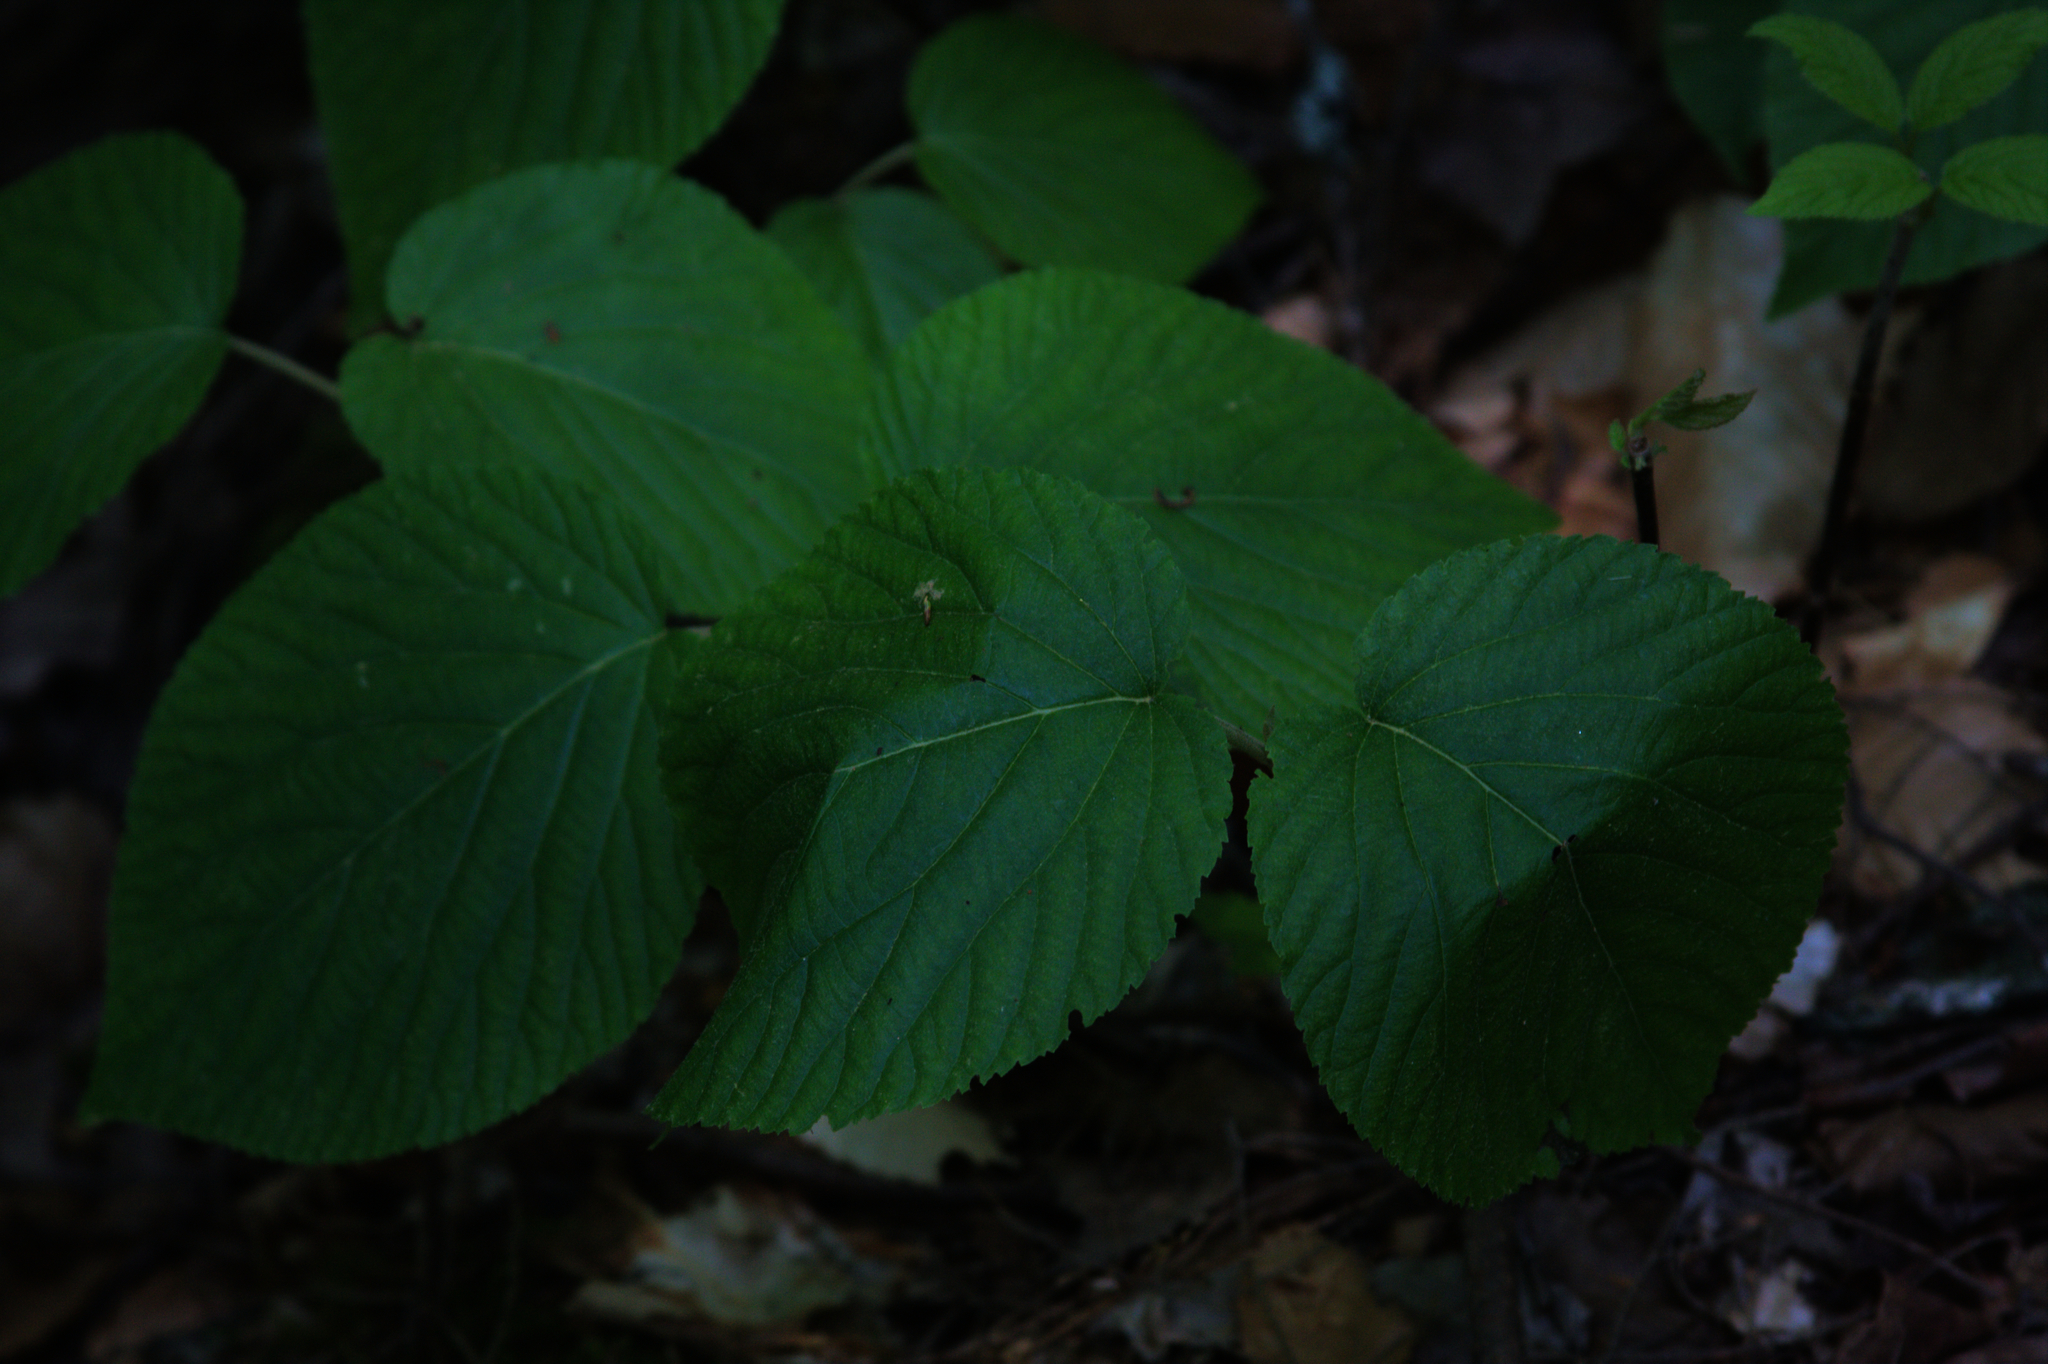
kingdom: Plantae
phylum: Tracheophyta
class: Magnoliopsida
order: Dipsacales
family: Viburnaceae
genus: Viburnum
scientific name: Viburnum lantanoides
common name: Hobblebush
